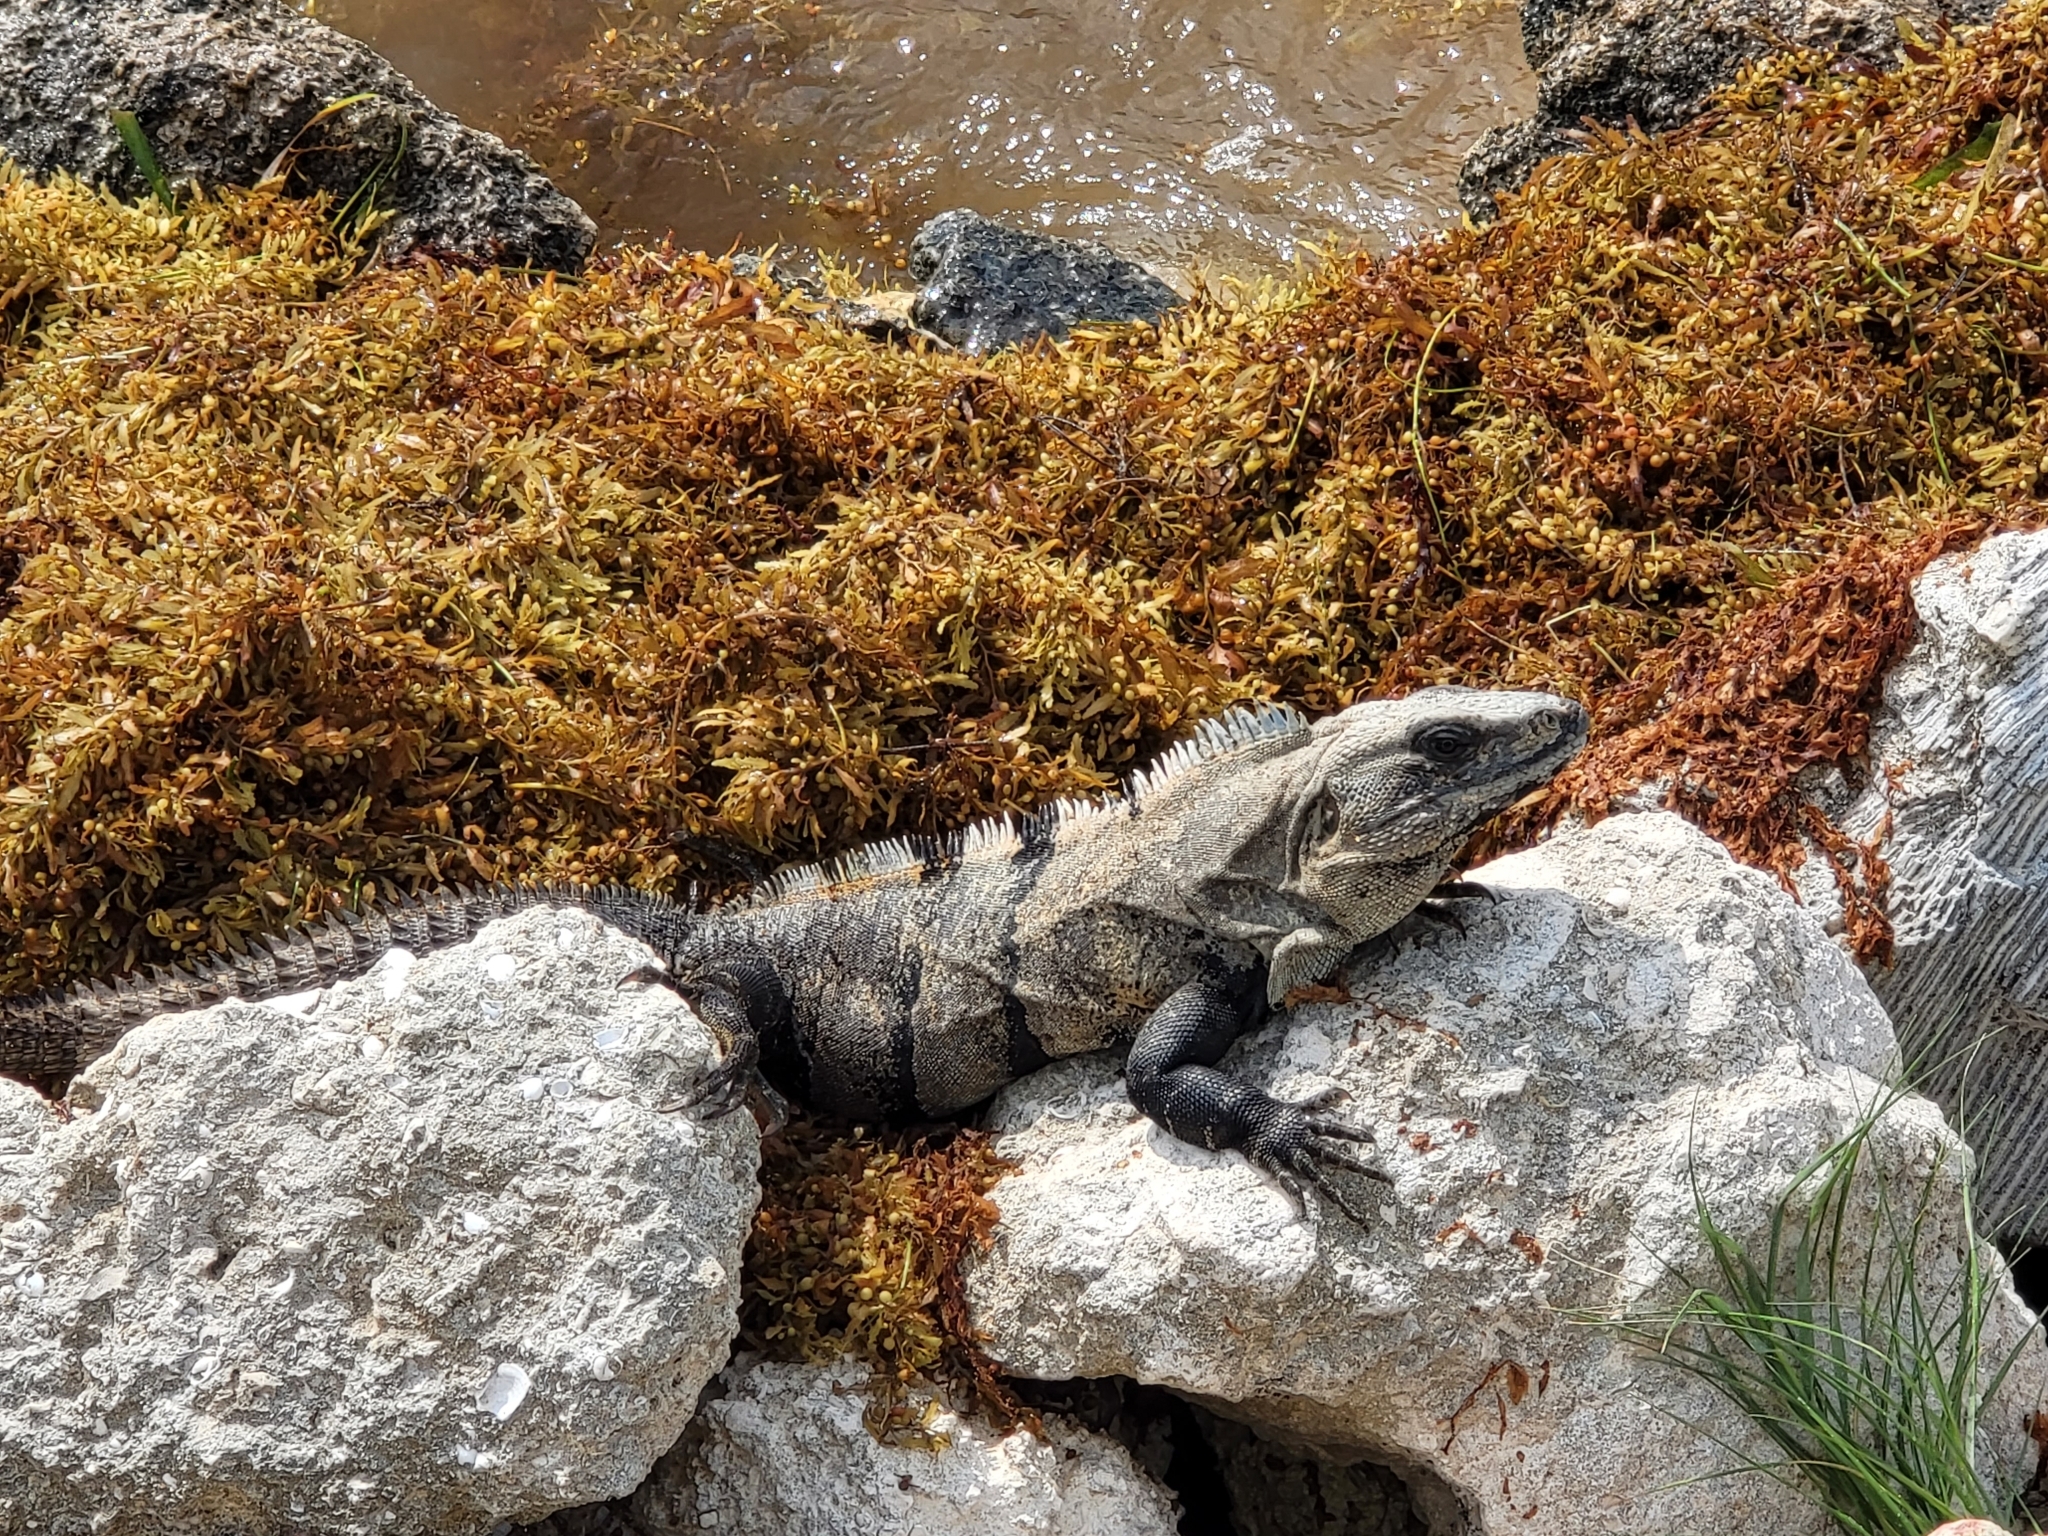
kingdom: Animalia
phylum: Chordata
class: Squamata
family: Iguanidae
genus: Ctenosaura
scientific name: Ctenosaura similis
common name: Black spiny-tailed iguana
